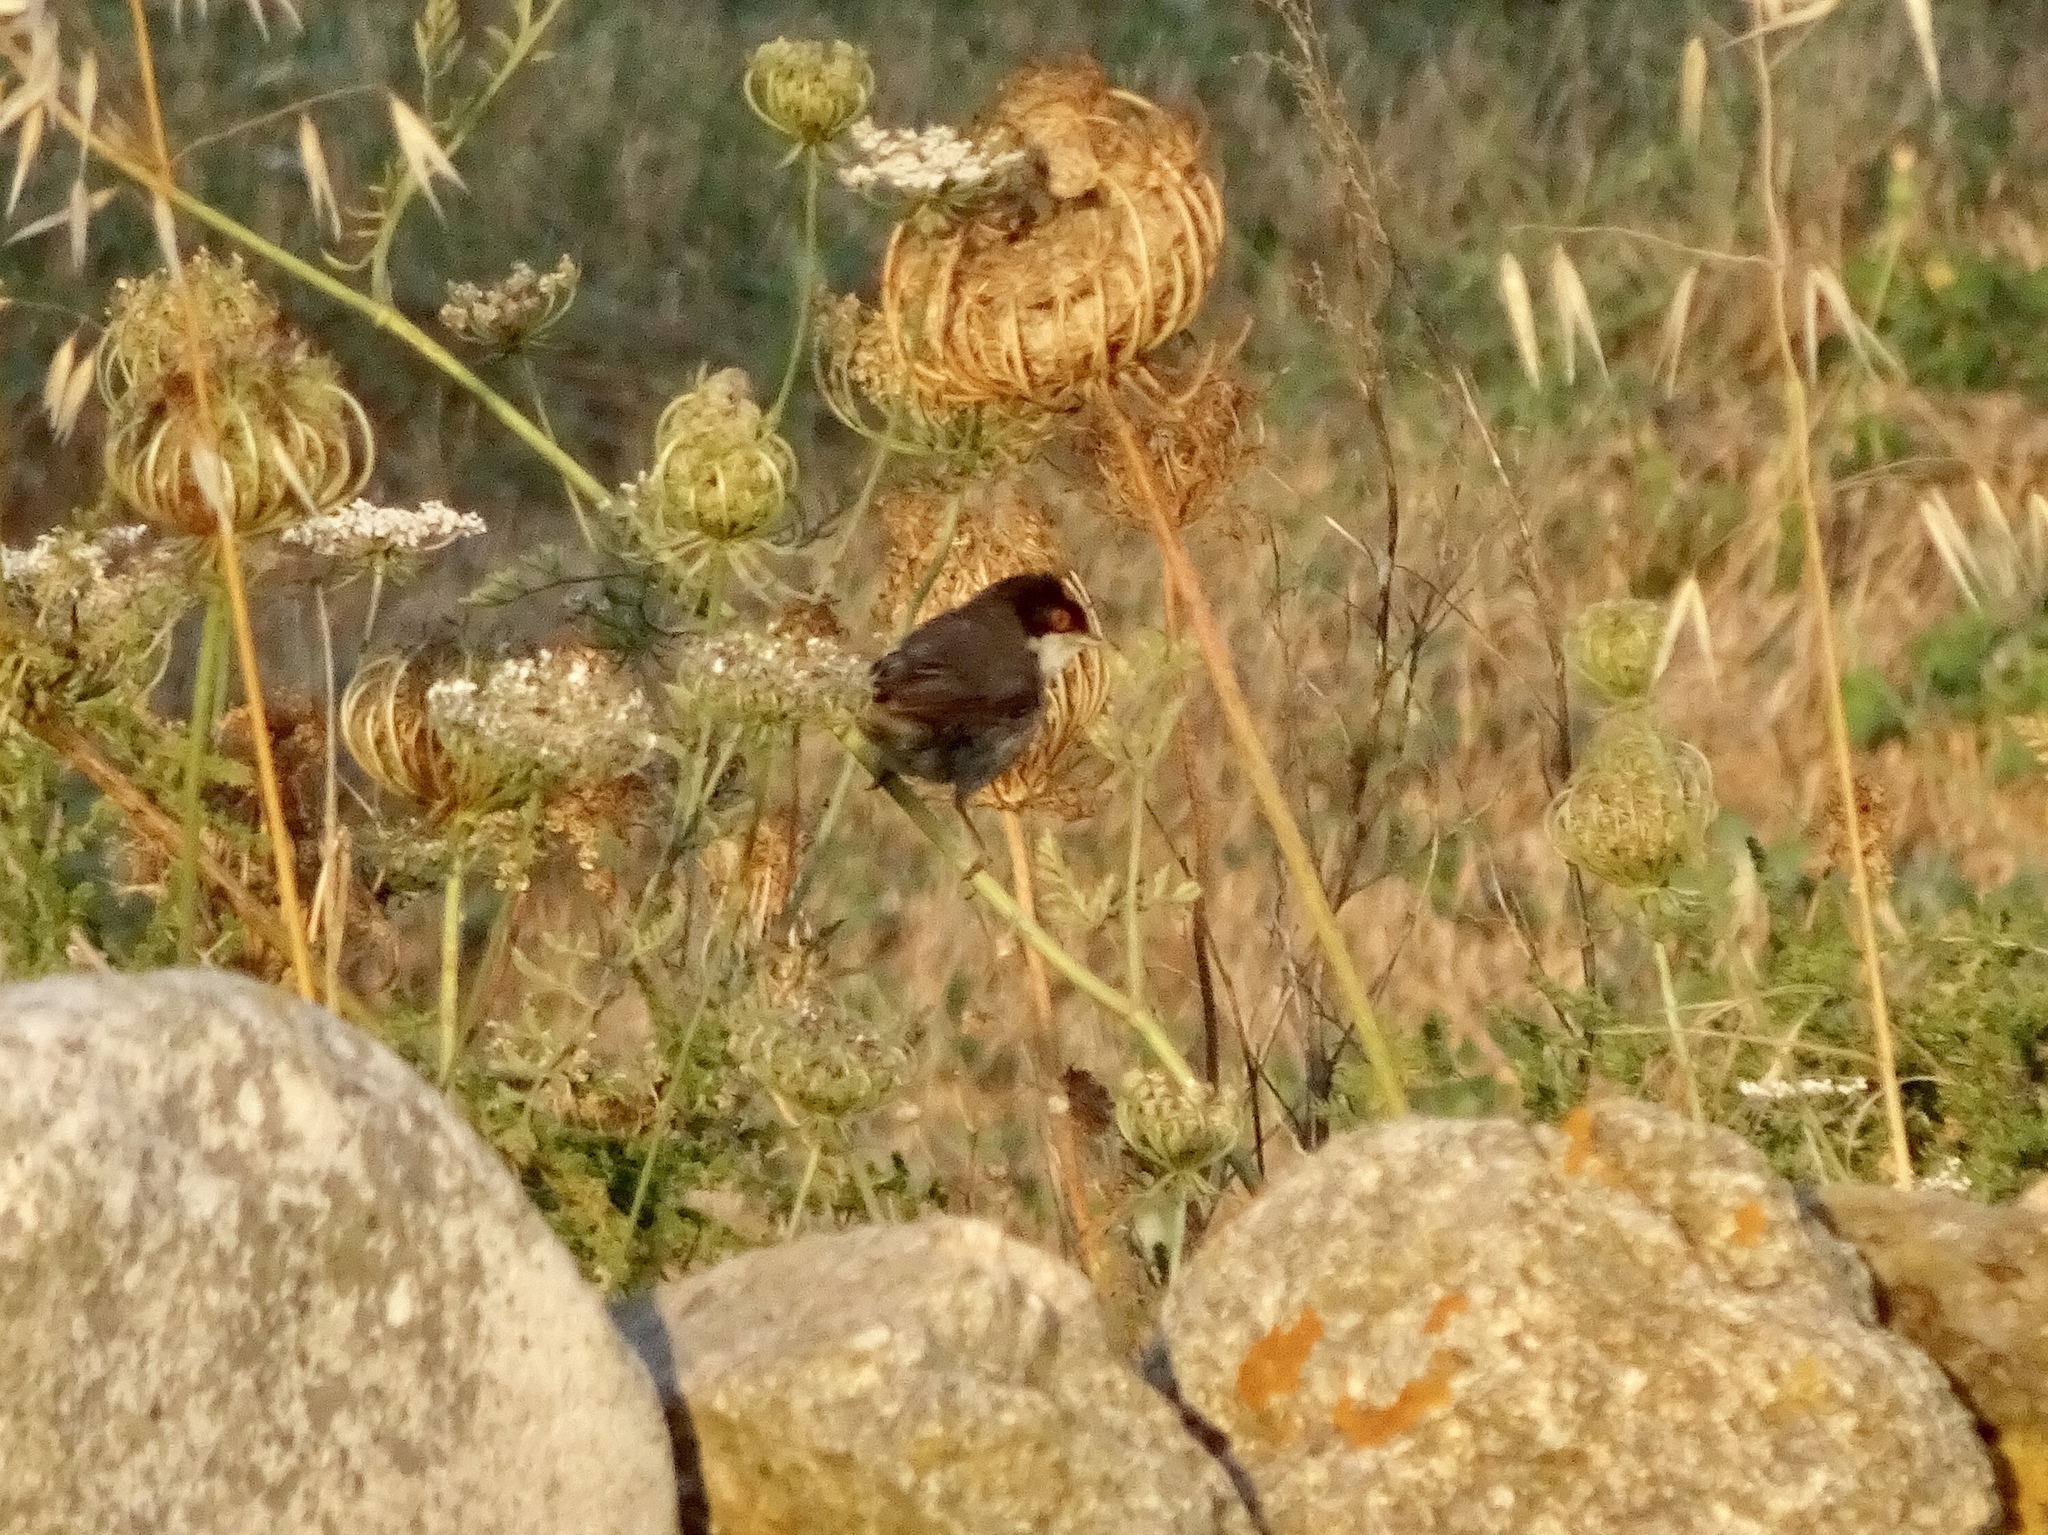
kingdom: Animalia
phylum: Chordata
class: Aves
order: Passeriformes
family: Sylviidae
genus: Curruca
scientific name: Curruca melanocephala
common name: Sardinian warbler
